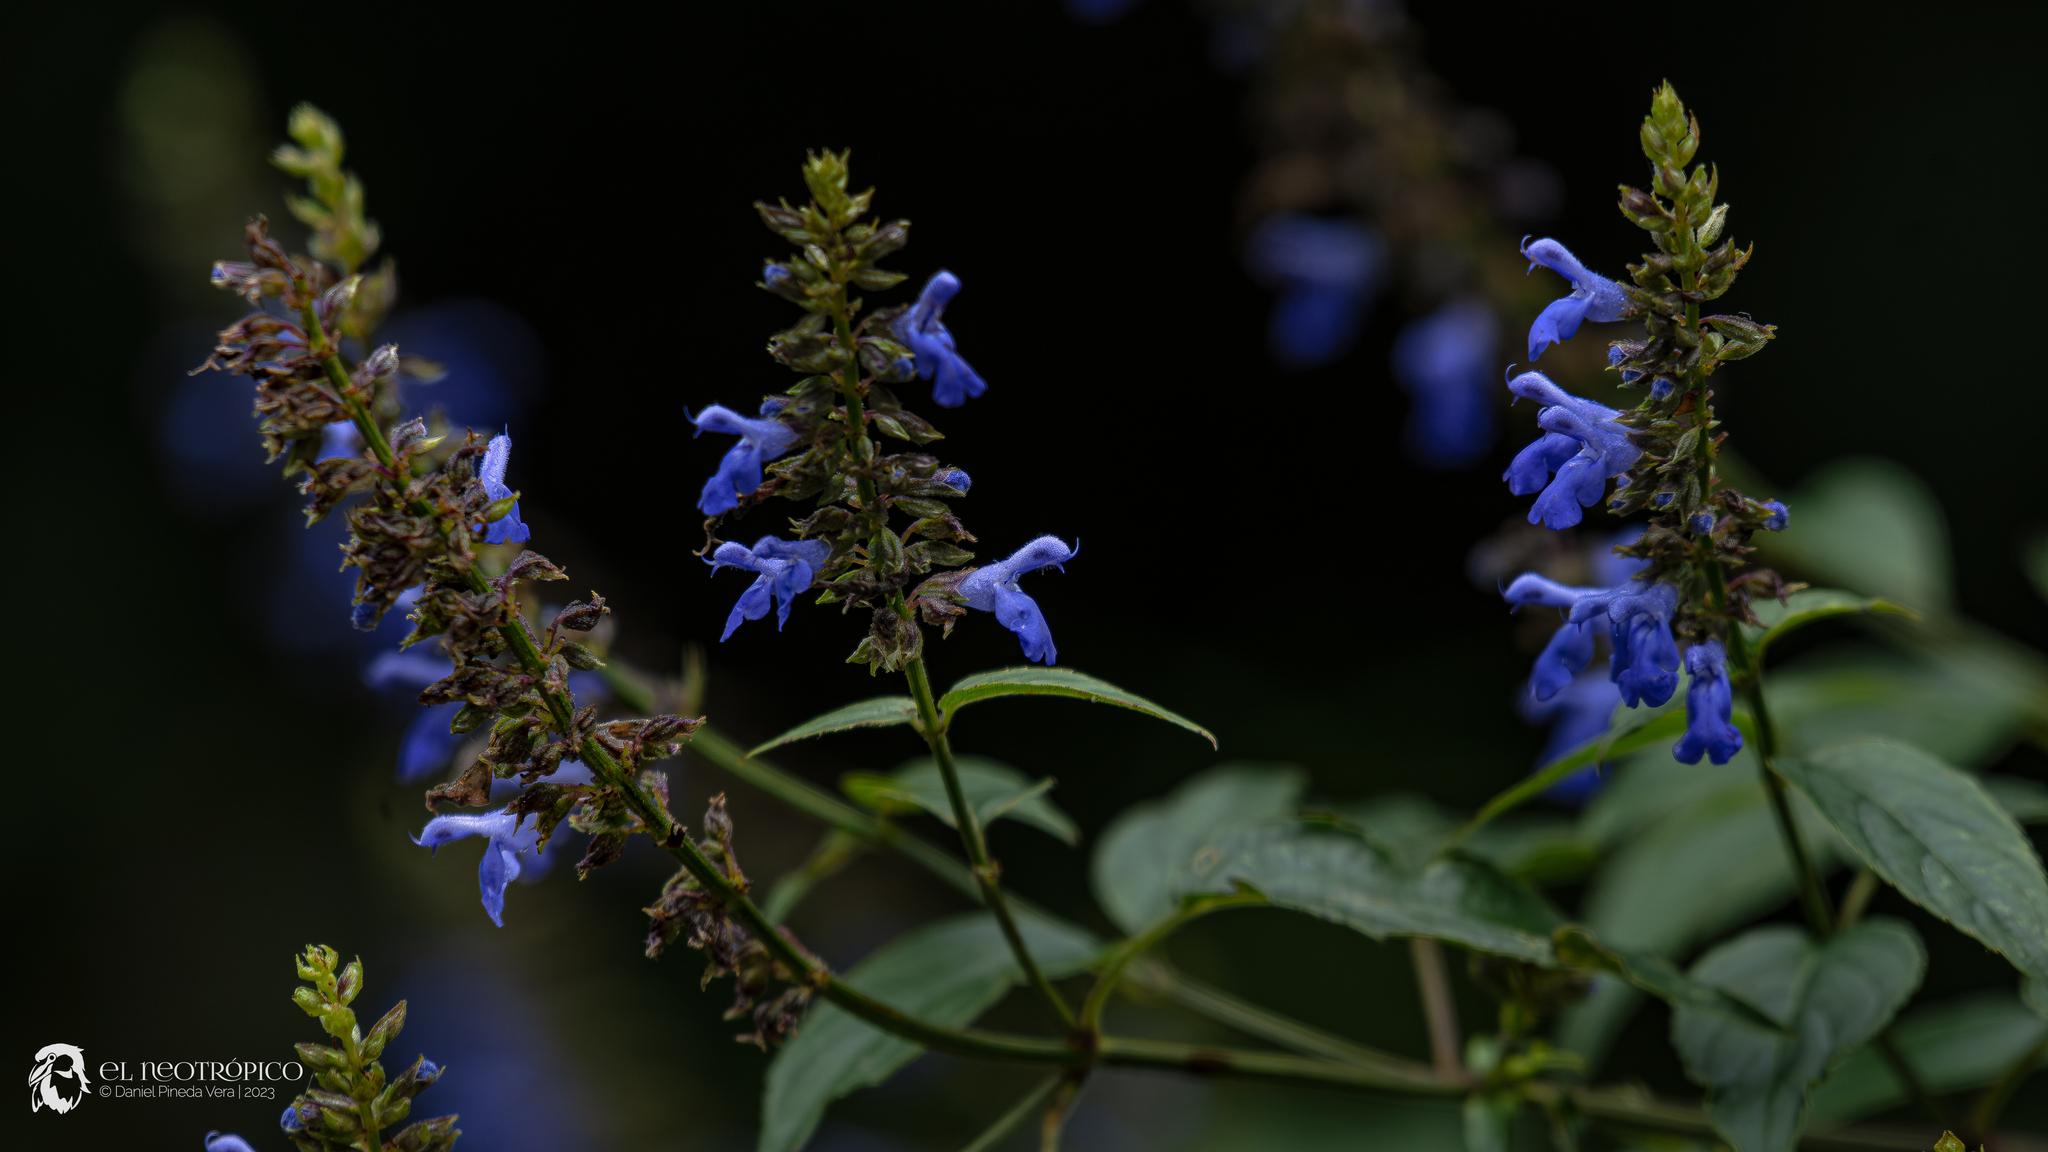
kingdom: Plantae
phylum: Tracheophyta
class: Magnoliopsida
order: Lamiales
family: Lamiaceae
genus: Salvia
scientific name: Salvia polystachia
